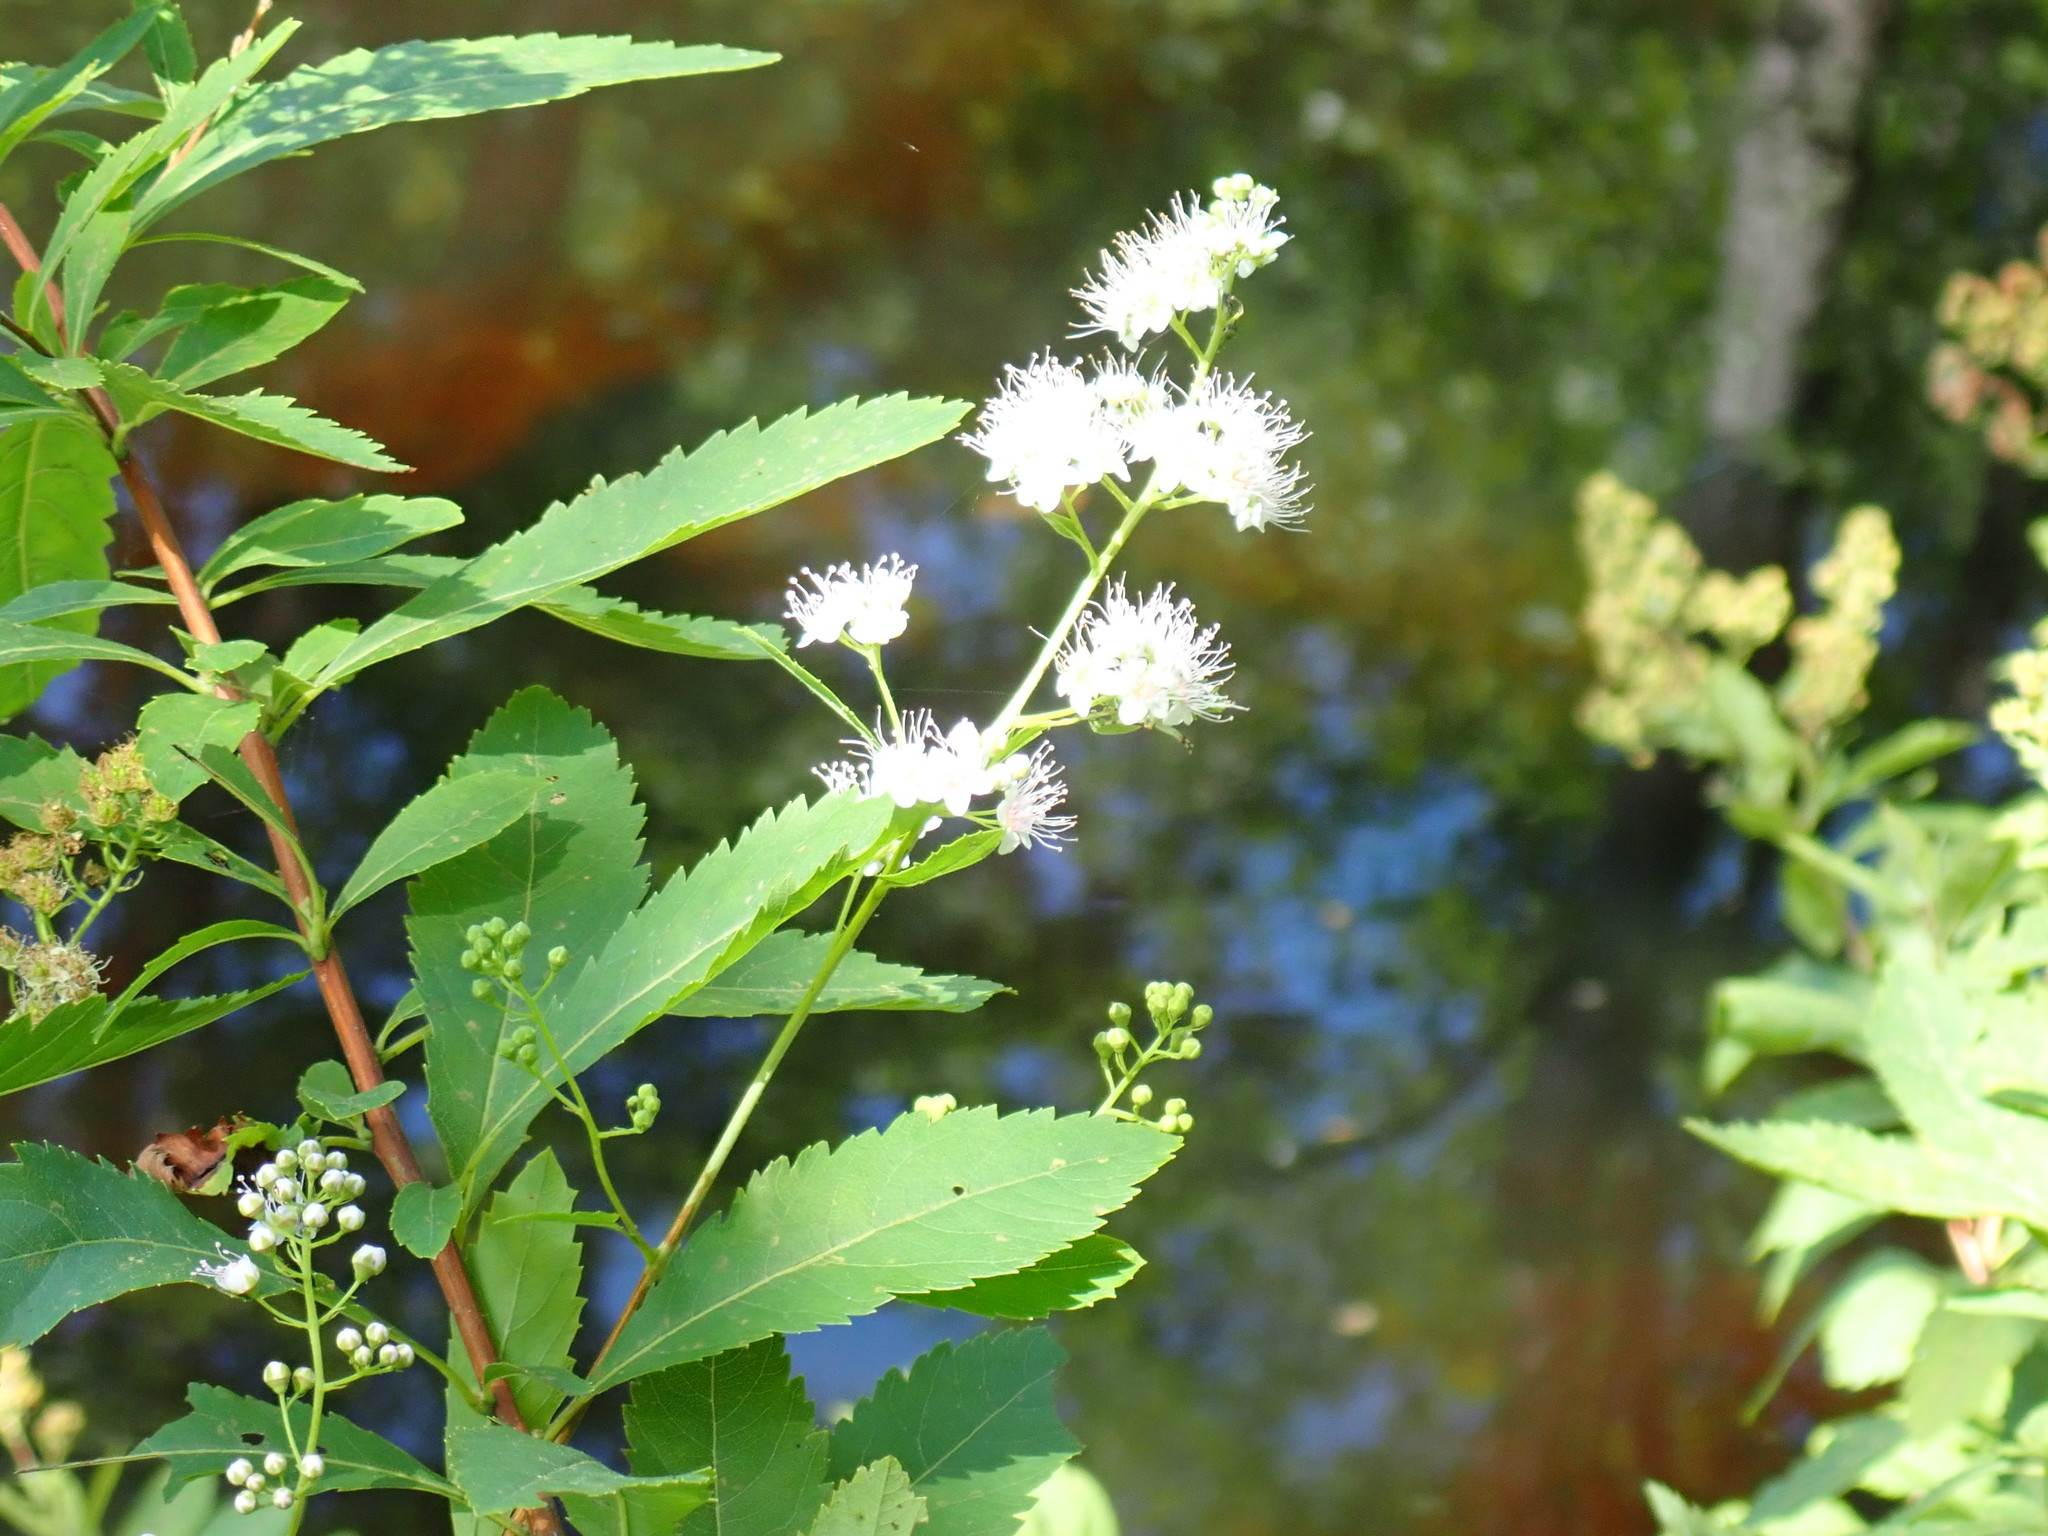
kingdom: Plantae
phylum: Tracheophyta
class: Magnoliopsida
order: Rosales
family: Rosaceae
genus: Spiraea
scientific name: Spiraea alba
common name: Pale bridewort
